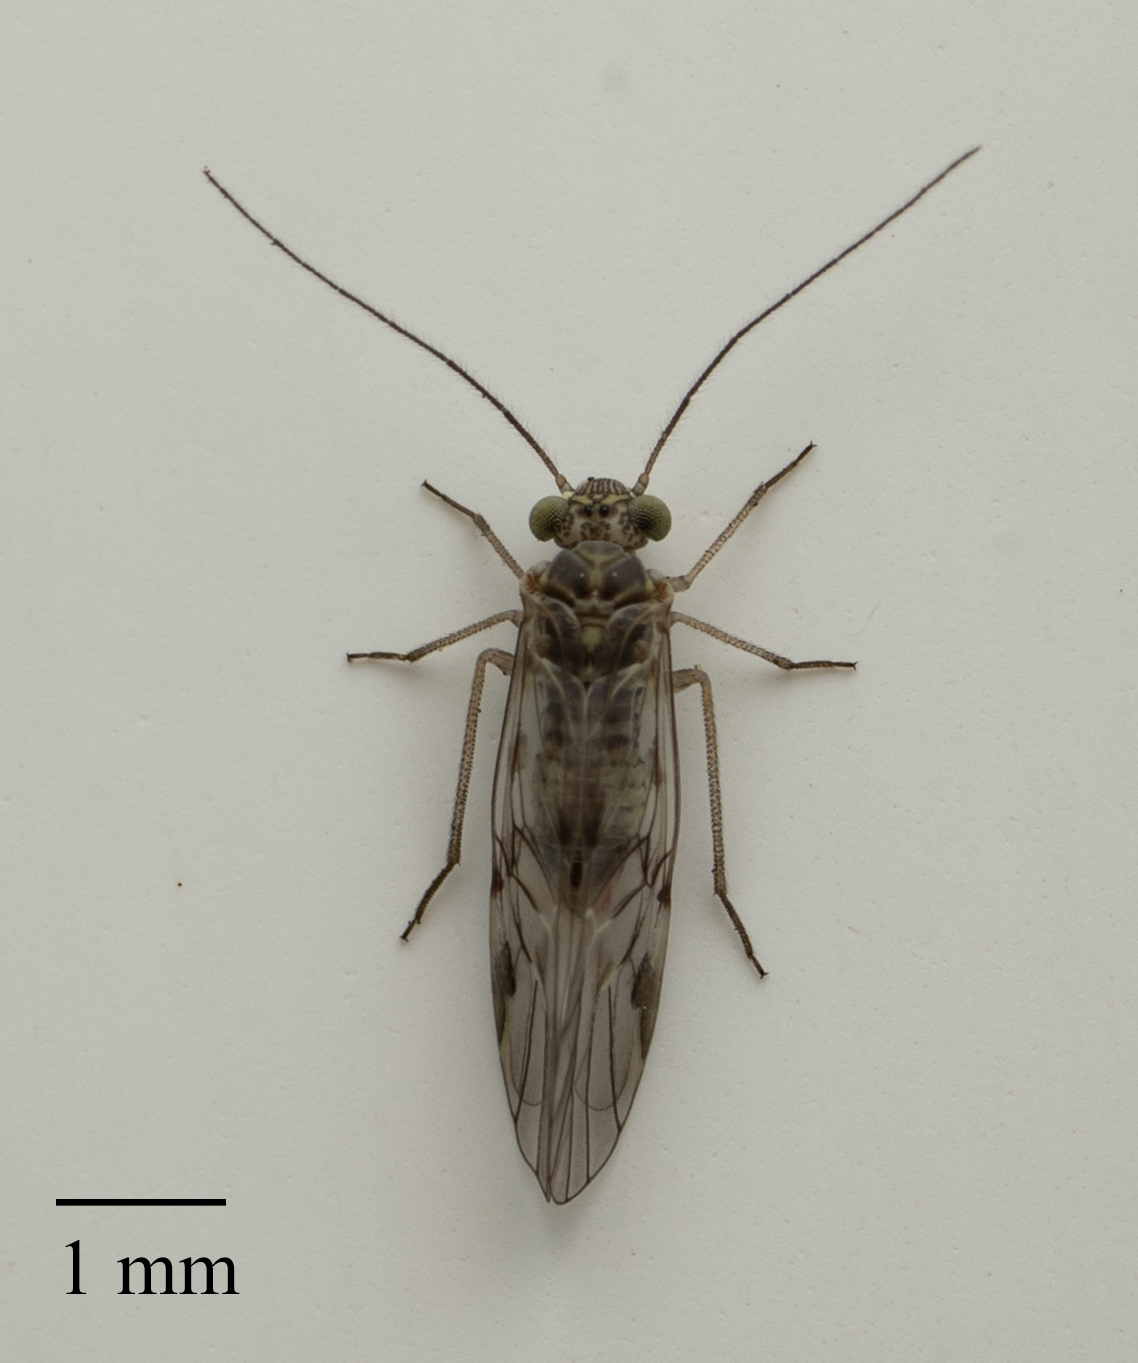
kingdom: Animalia
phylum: Arthropoda
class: Insecta
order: Psocodea
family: Psocidae
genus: Amphigerontia
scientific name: Amphigerontia bifasciata
